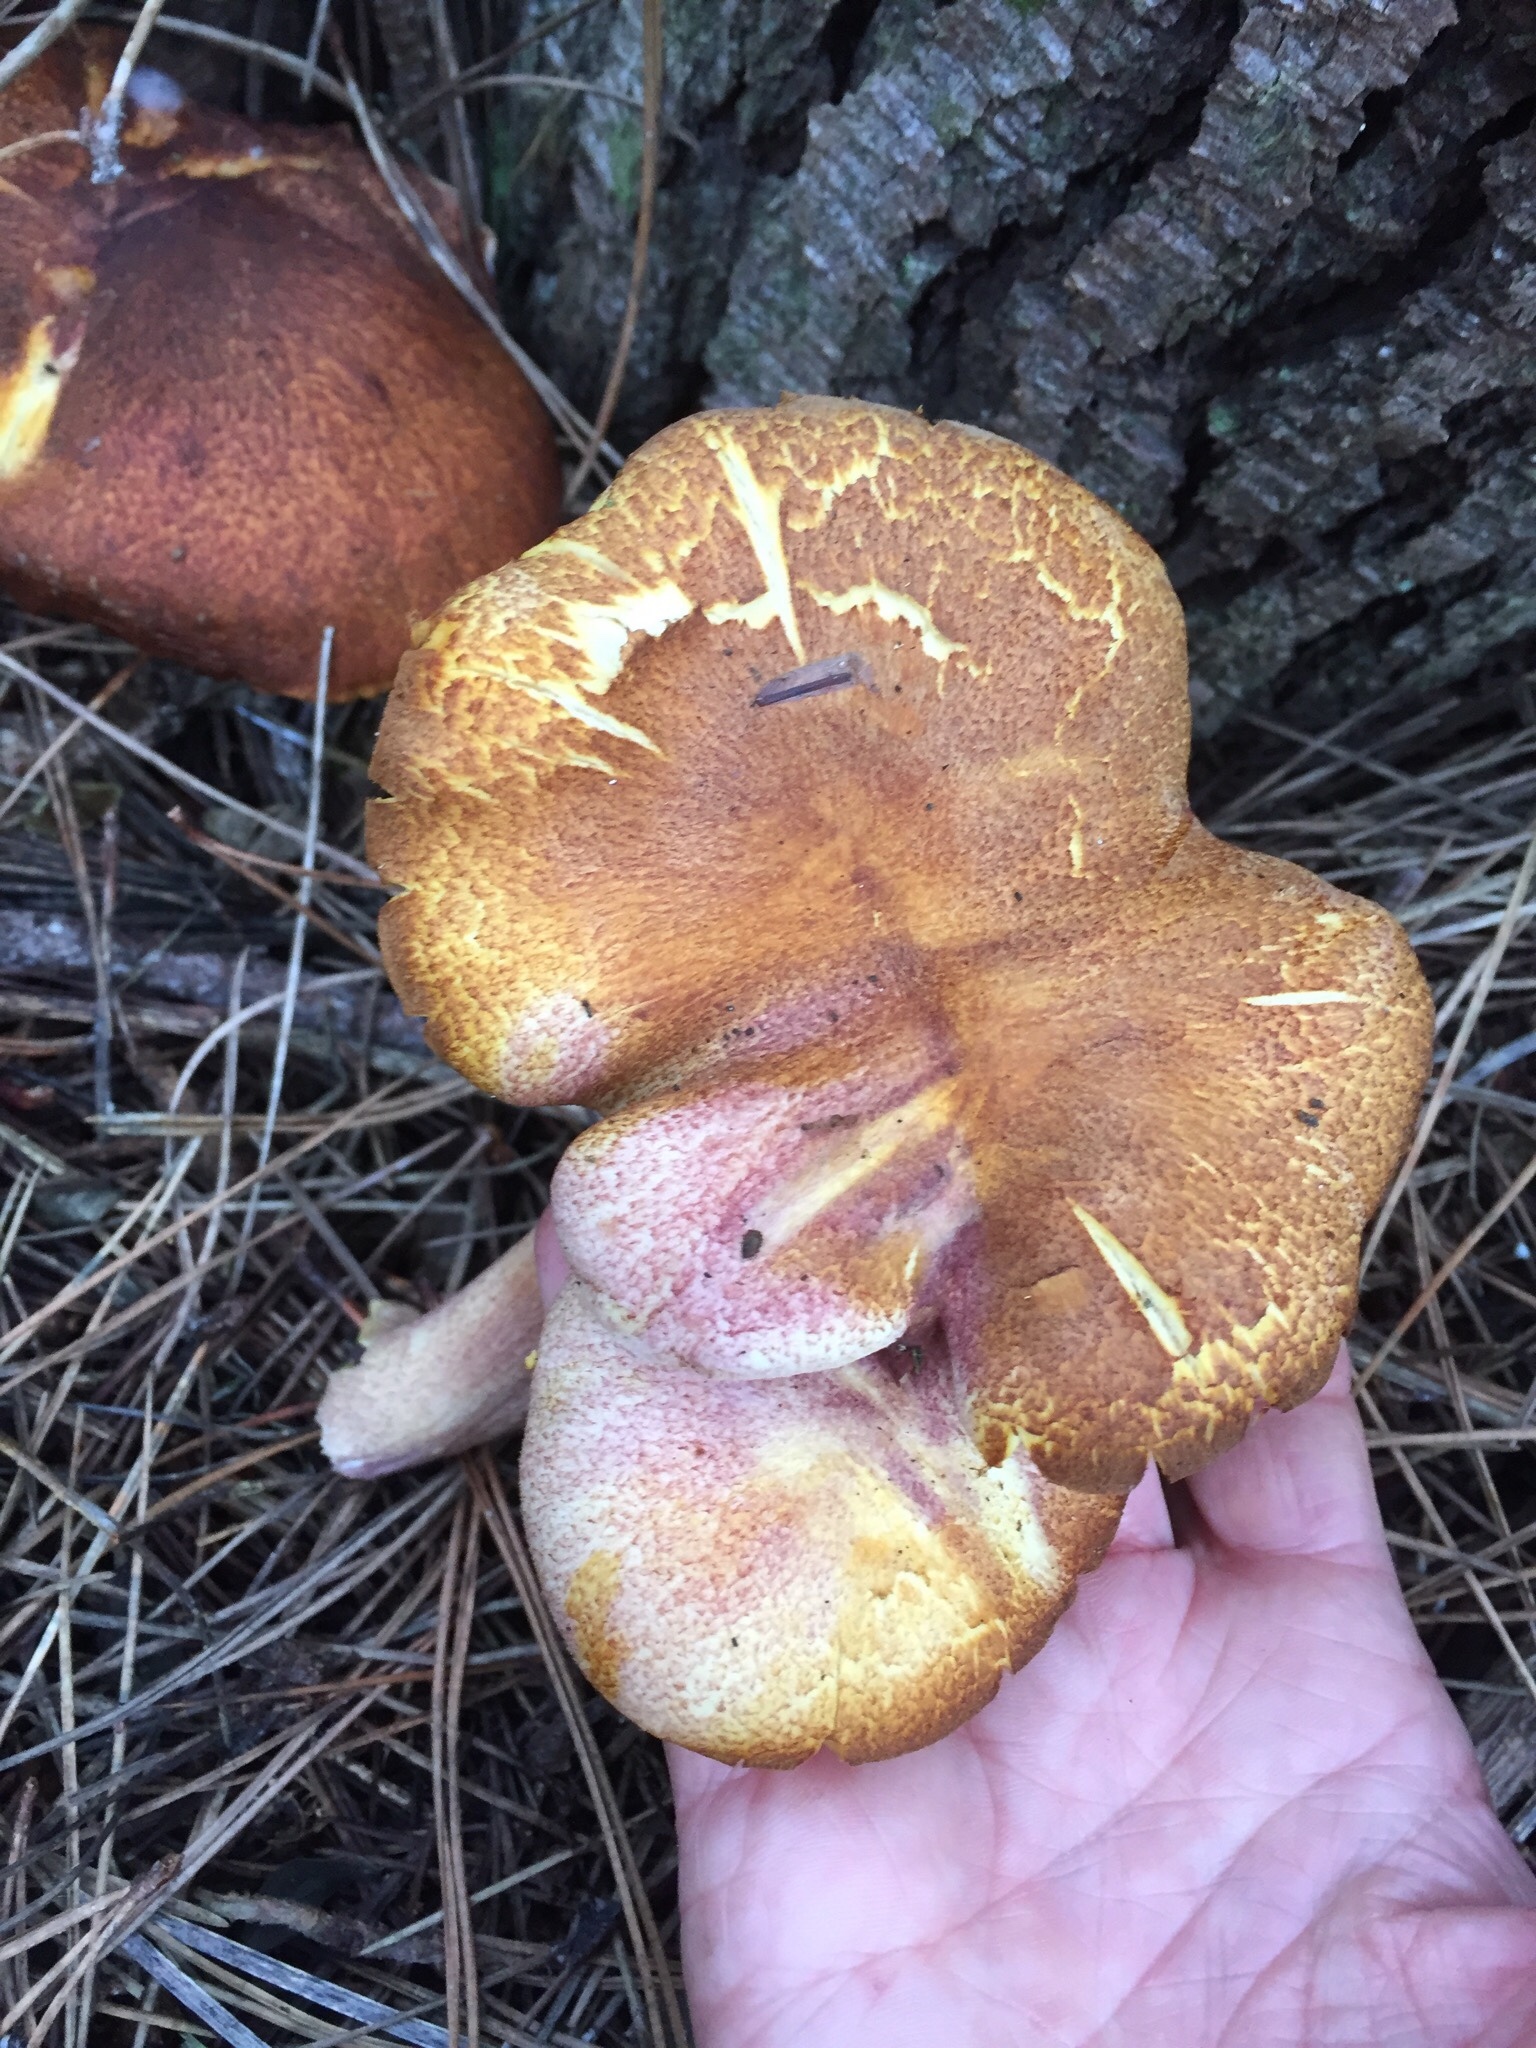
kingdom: Fungi
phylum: Basidiomycota
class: Agaricomycetes
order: Agaricales
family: Tricholomataceae
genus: Tricholomopsis
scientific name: Tricholomopsis rutilans
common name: Plums and custard
